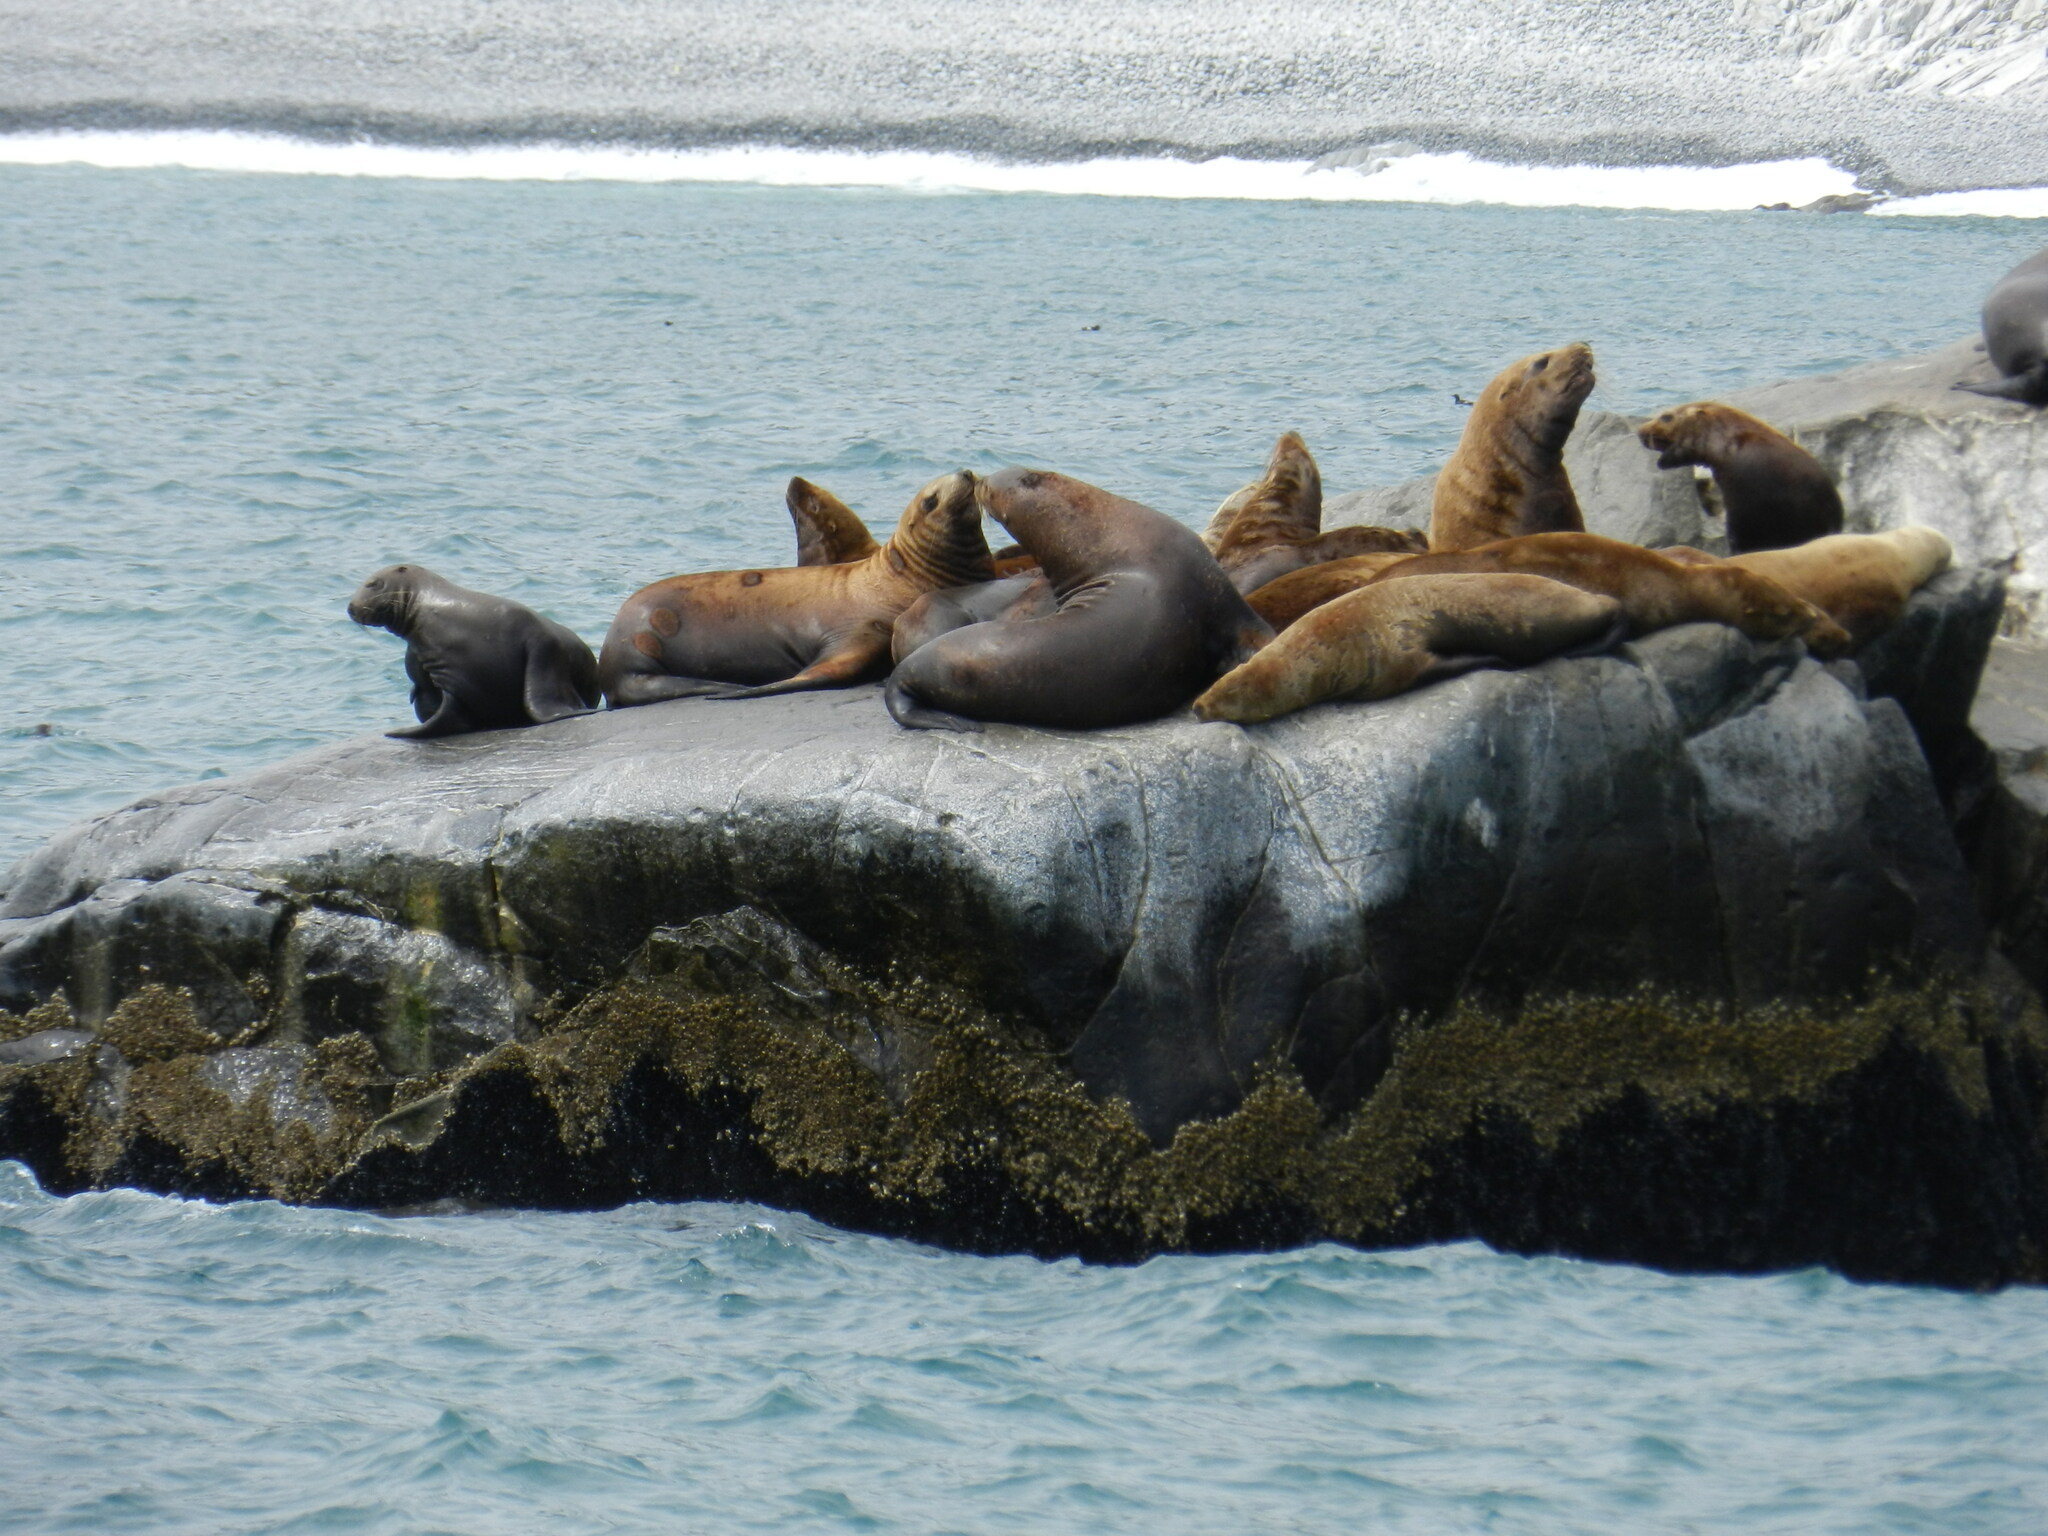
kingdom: Animalia
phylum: Chordata
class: Mammalia
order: Carnivora
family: Otariidae
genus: Eumetopias
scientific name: Eumetopias jubatus
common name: Steller sea lion
